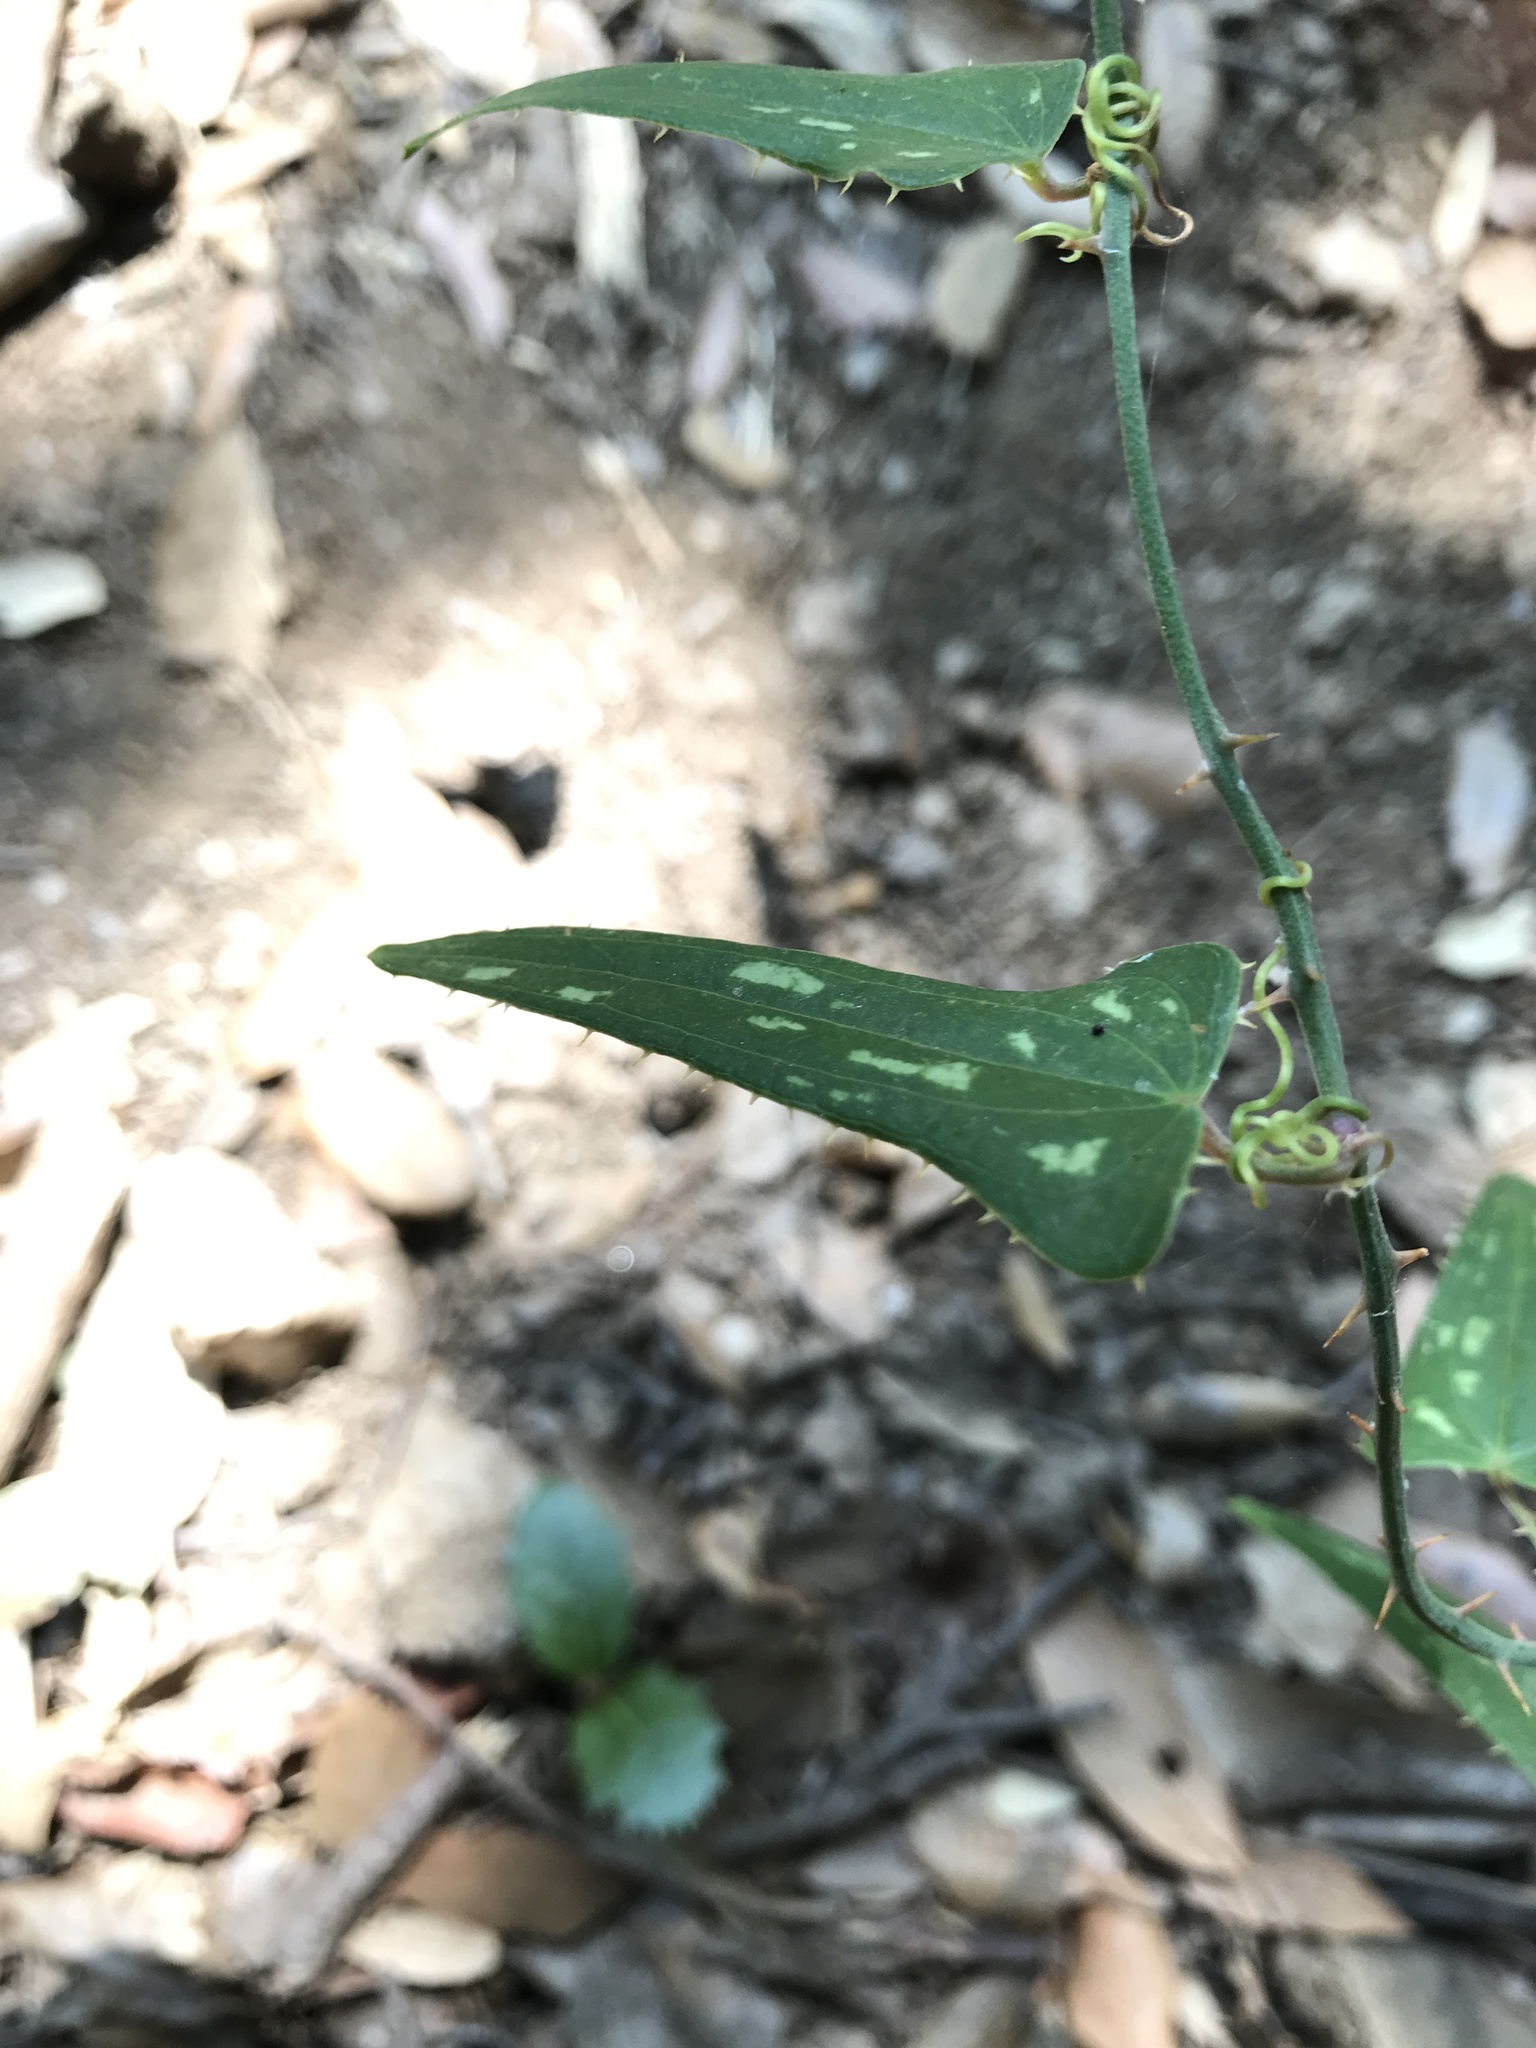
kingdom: Plantae
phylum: Tracheophyta
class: Liliopsida
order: Liliales
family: Smilacaceae
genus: Smilax
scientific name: Smilax aspera
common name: Common smilax
